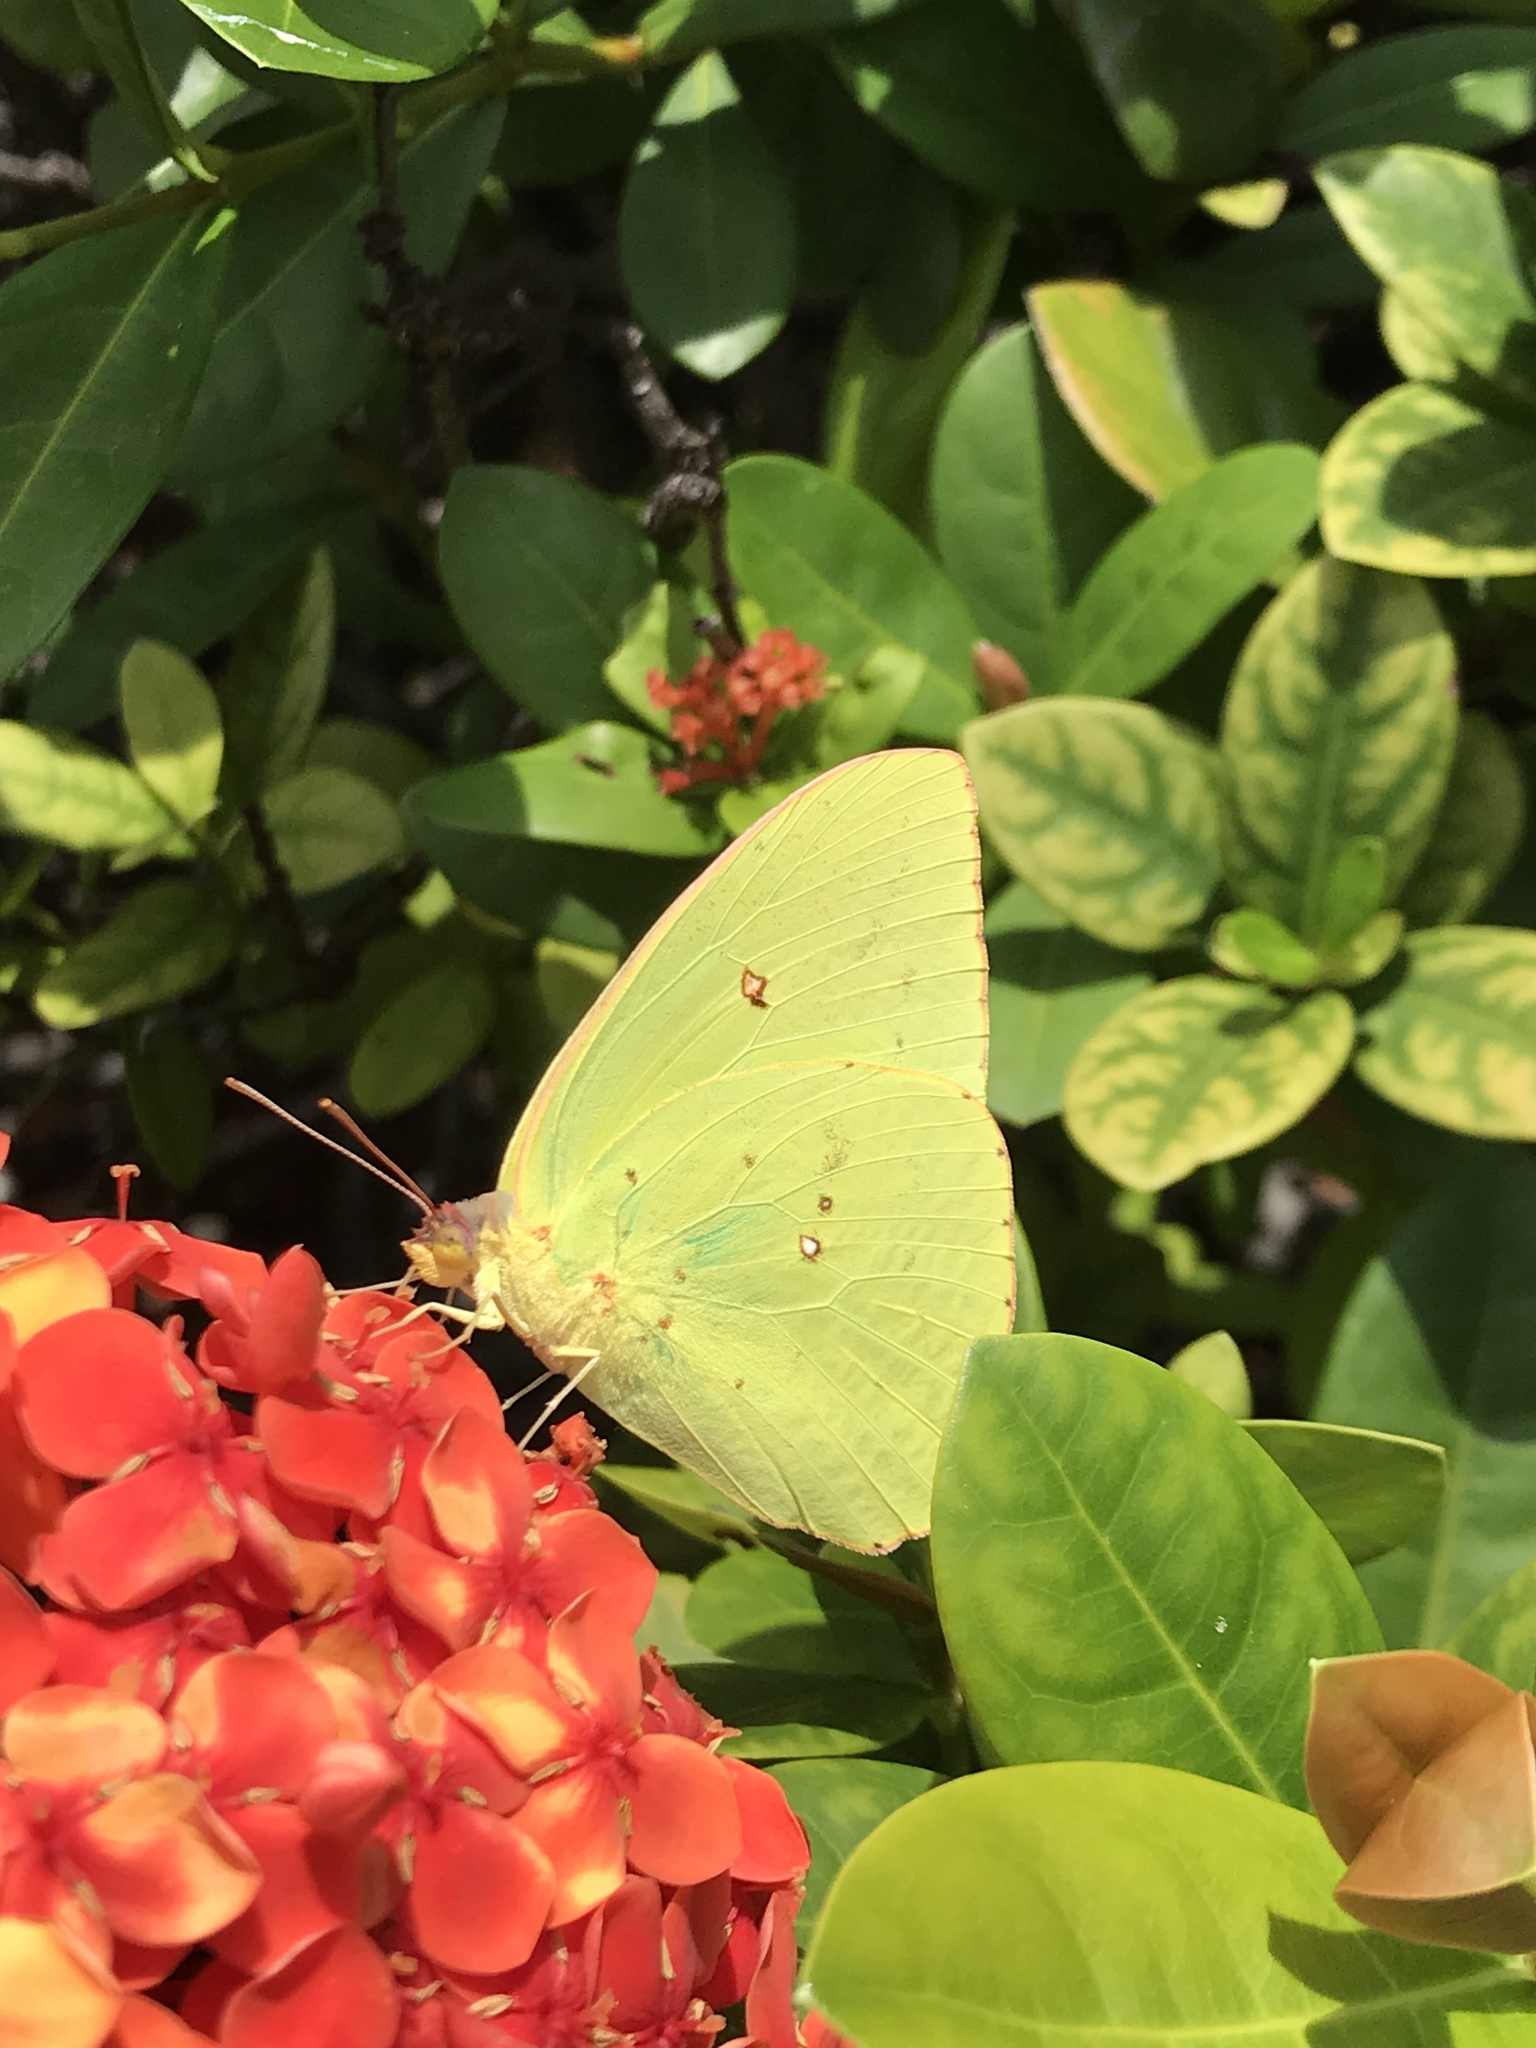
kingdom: Animalia
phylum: Arthropoda
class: Insecta
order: Lepidoptera
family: Pieridae
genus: Phoebis
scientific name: Phoebis sennae
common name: Cloudless sulphur
